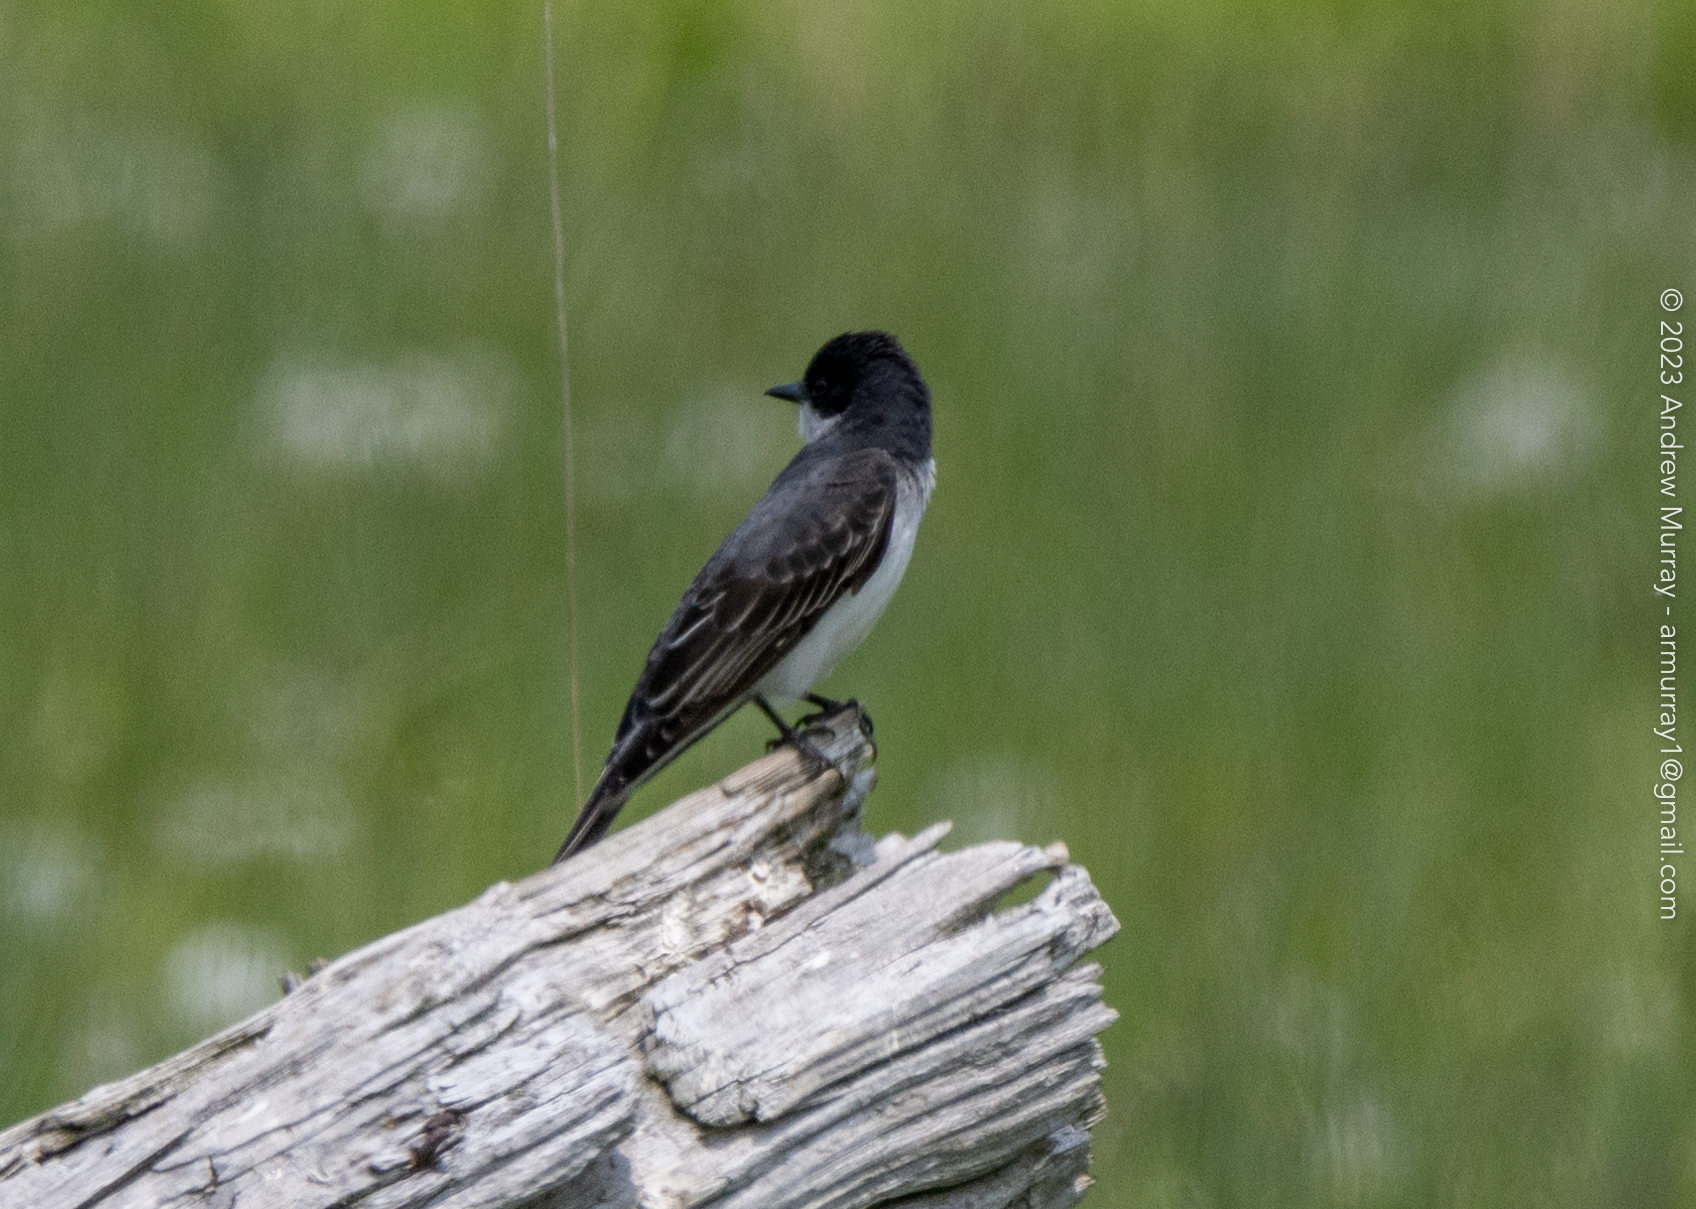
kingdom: Animalia
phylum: Chordata
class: Aves
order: Passeriformes
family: Tyrannidae
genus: Tyrannus
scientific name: Tyrannus tyrannus
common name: Eastern kingbird
